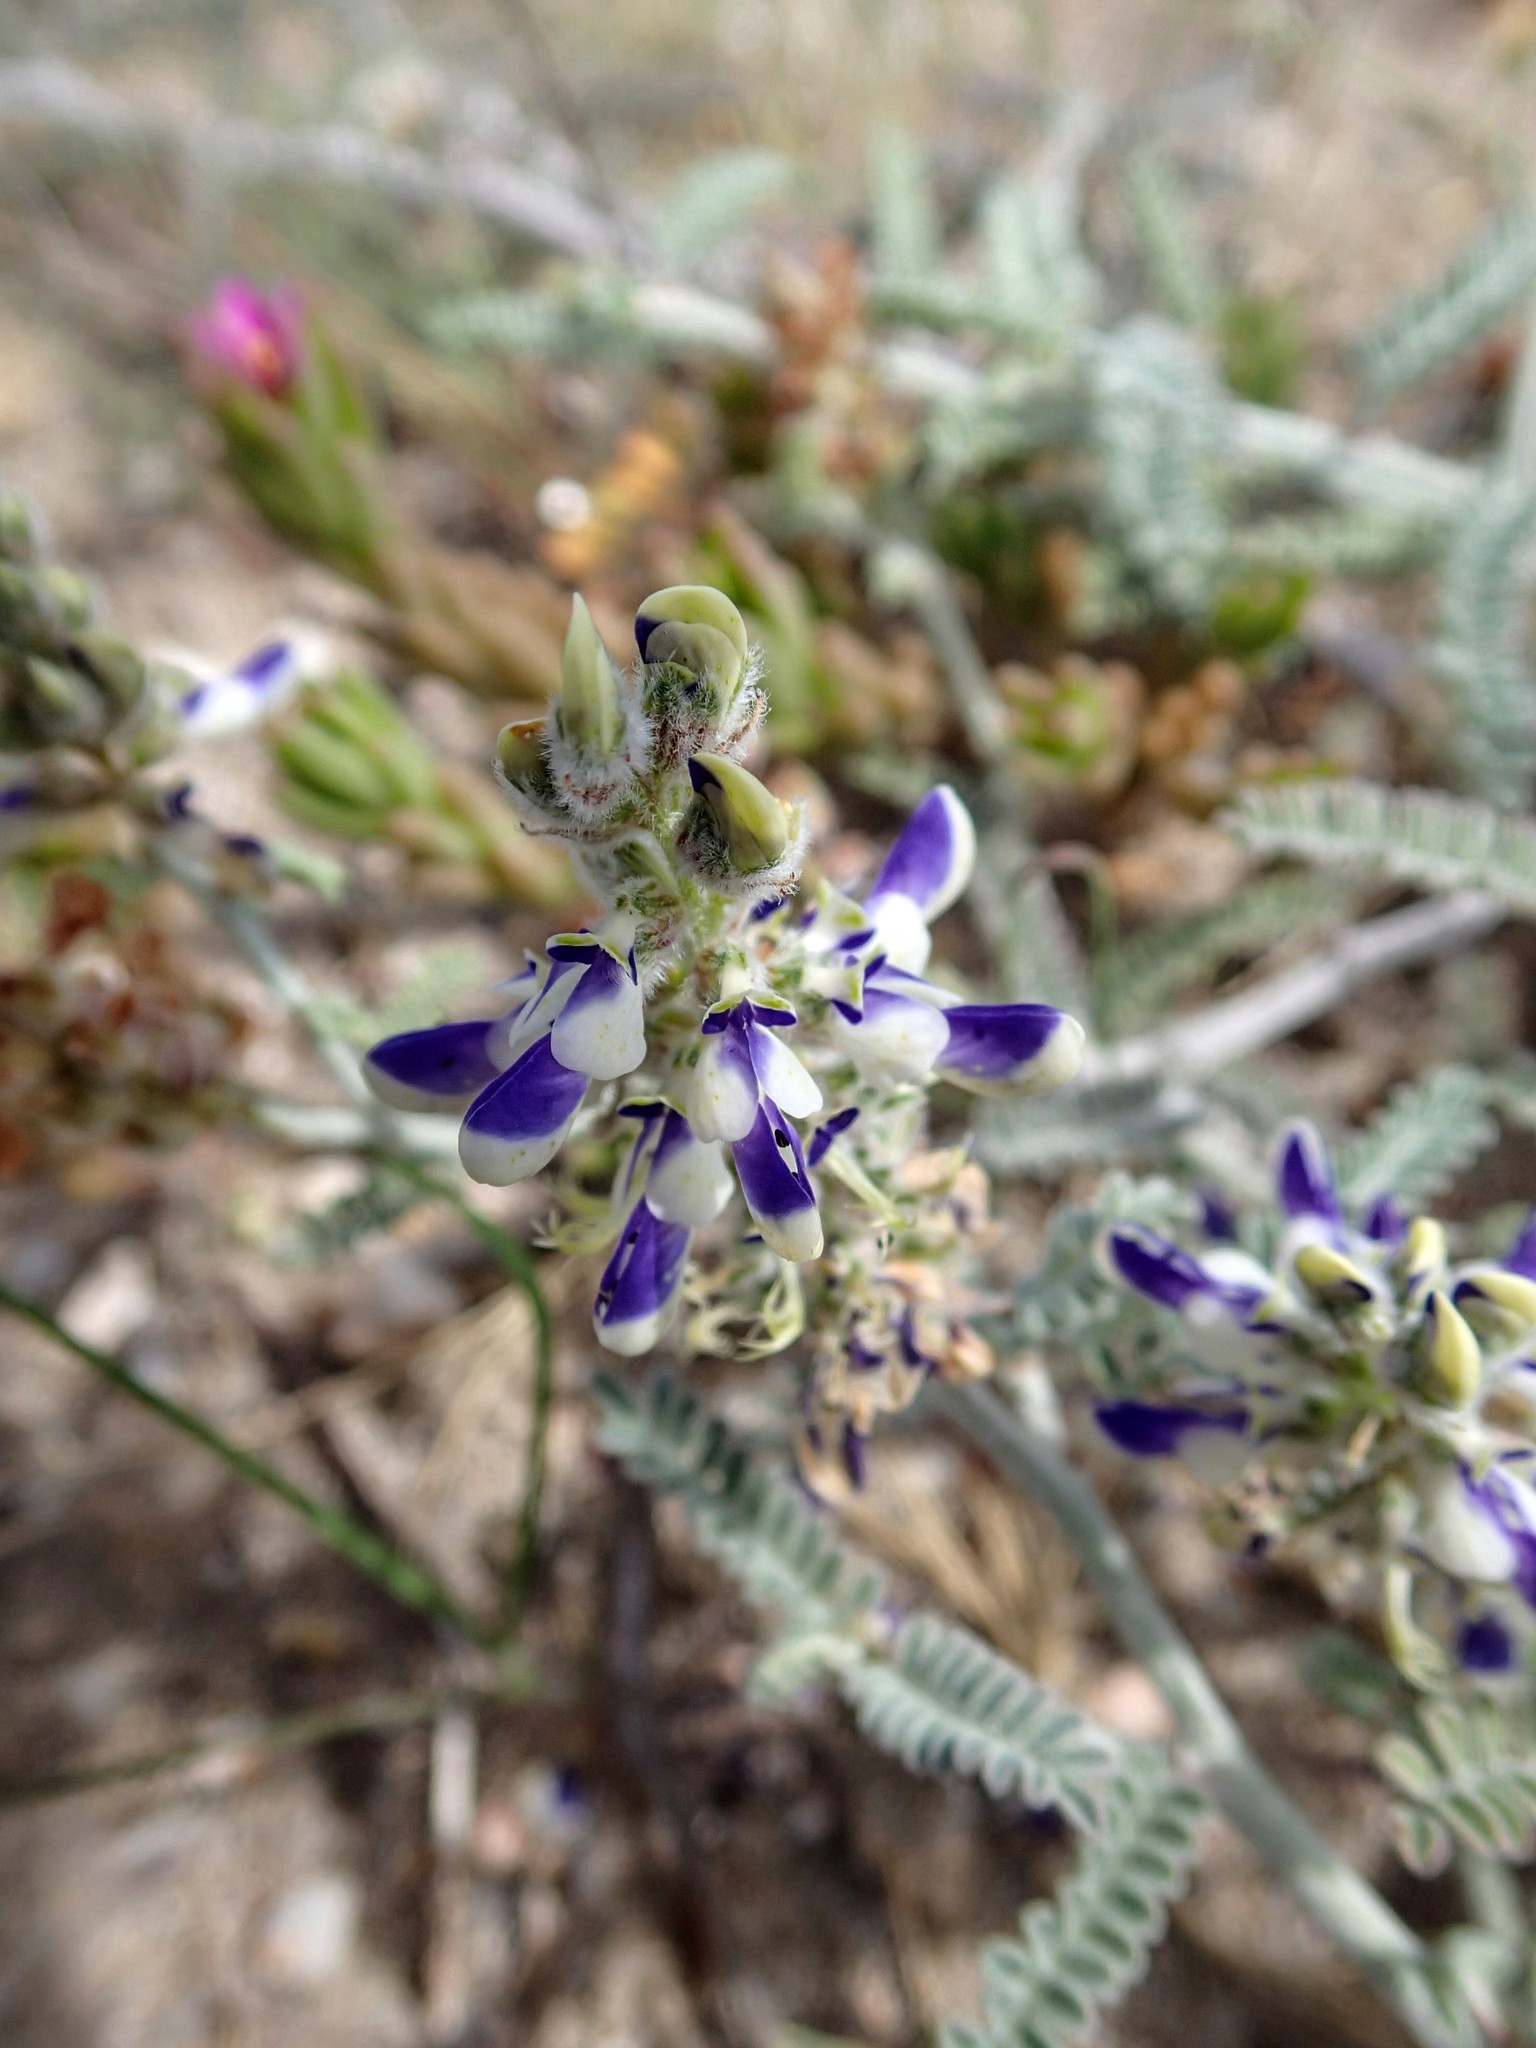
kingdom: Plantae
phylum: Tracheophyta
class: Magnoliopsida
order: Fabales
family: Fabaceae
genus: Marina
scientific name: Marina maritima
